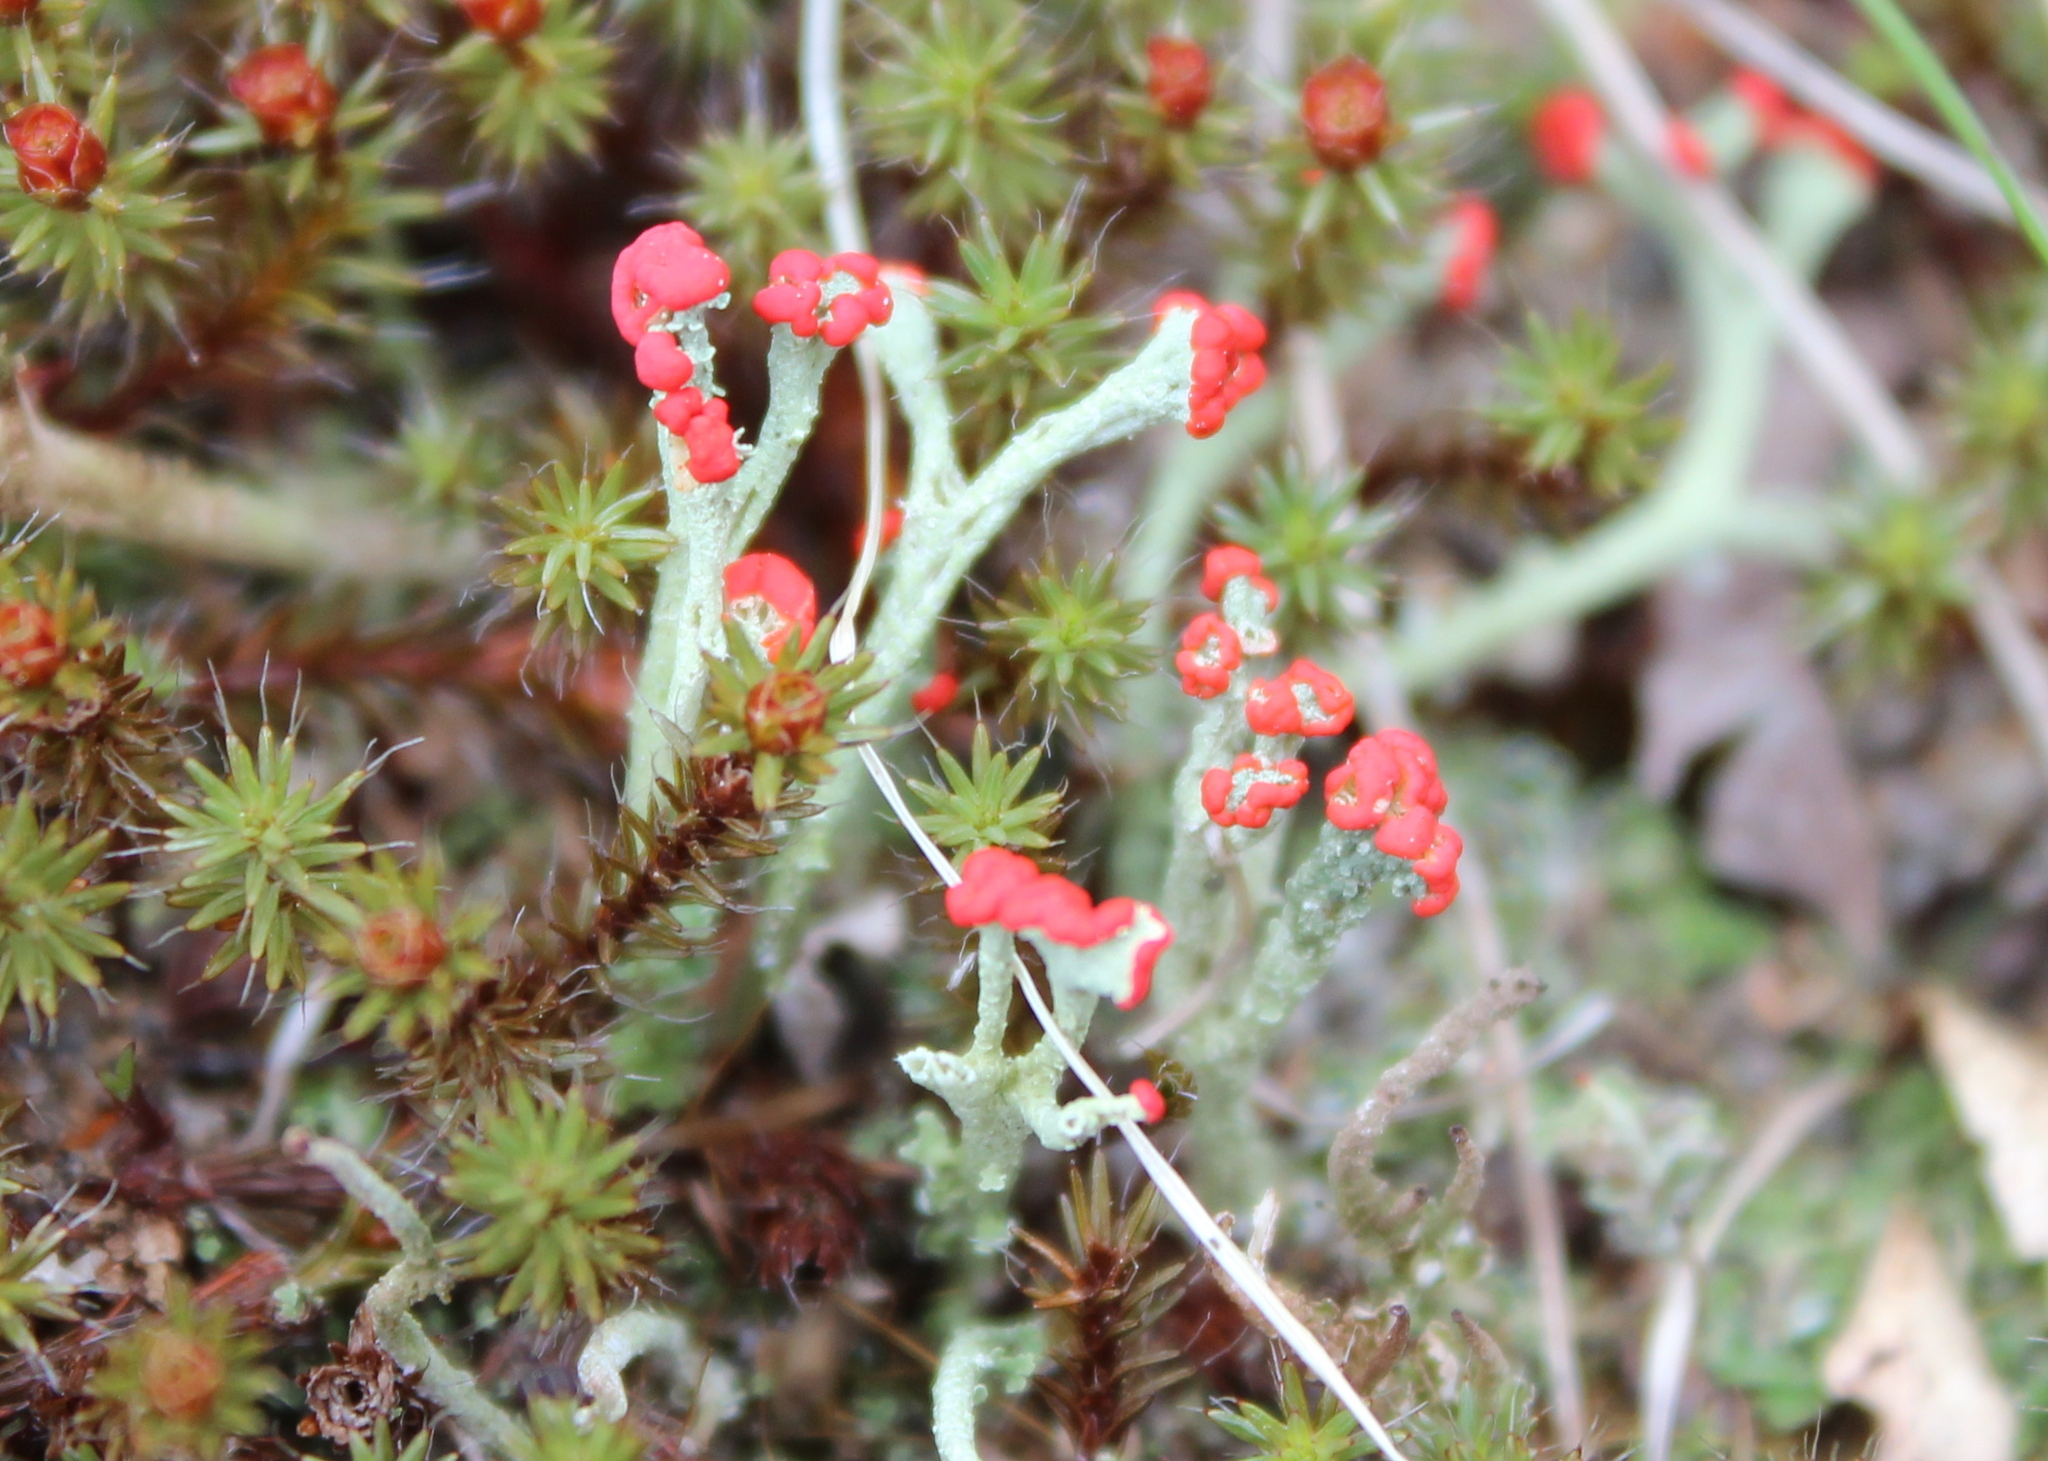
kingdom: Fungi
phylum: Ascomycota
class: Lecanoromycetes
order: Lecanorales
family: Cladoniaceae
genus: Cladonia
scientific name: Cladonia cristatella
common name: British soldier lichen
